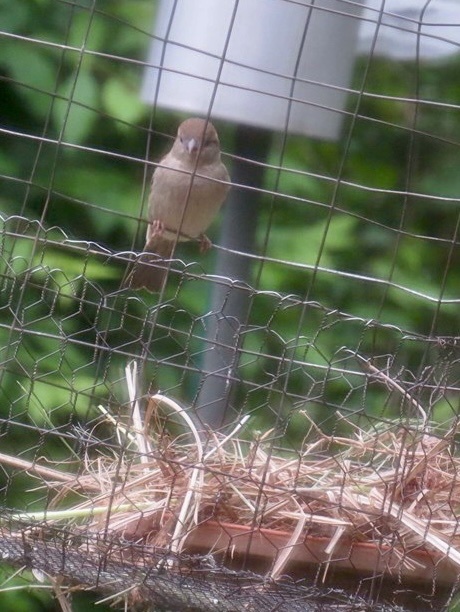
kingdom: Animalia
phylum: Chordata
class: Aves
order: Passeriformes
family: Passeridae
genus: Passer
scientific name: Passer domesticus
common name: House sparrow
